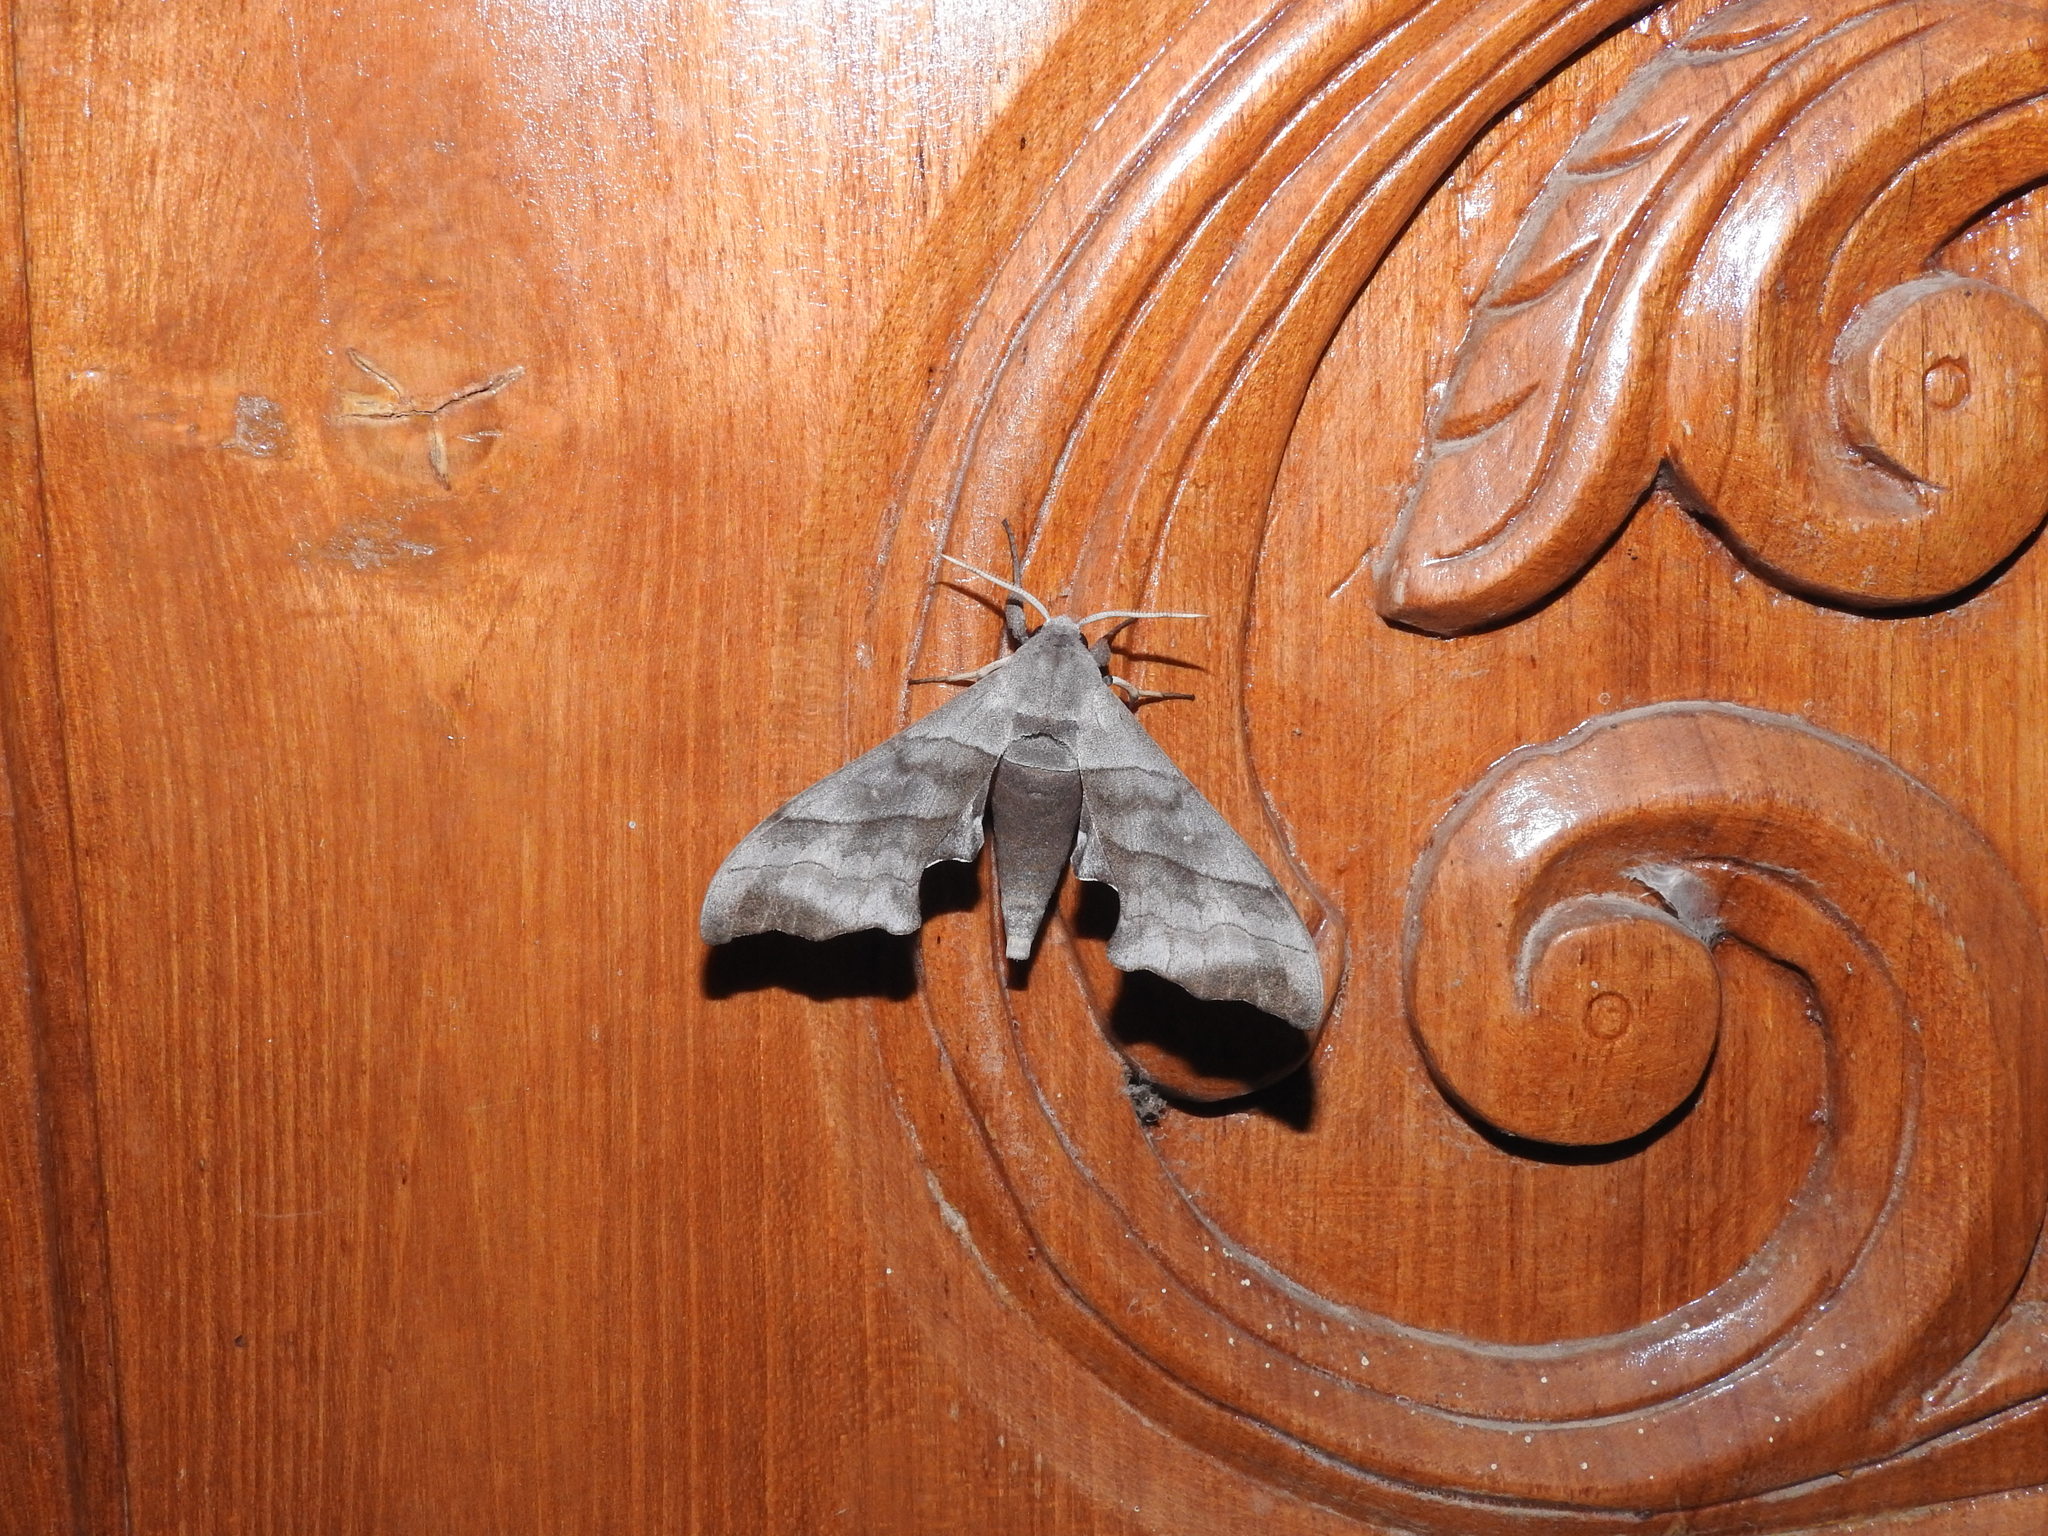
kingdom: Animalia
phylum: Arthropoda
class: Insecta
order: Lepidoptera
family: Sphingidae
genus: Polyptychus
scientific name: Polyptychus trilineatus
